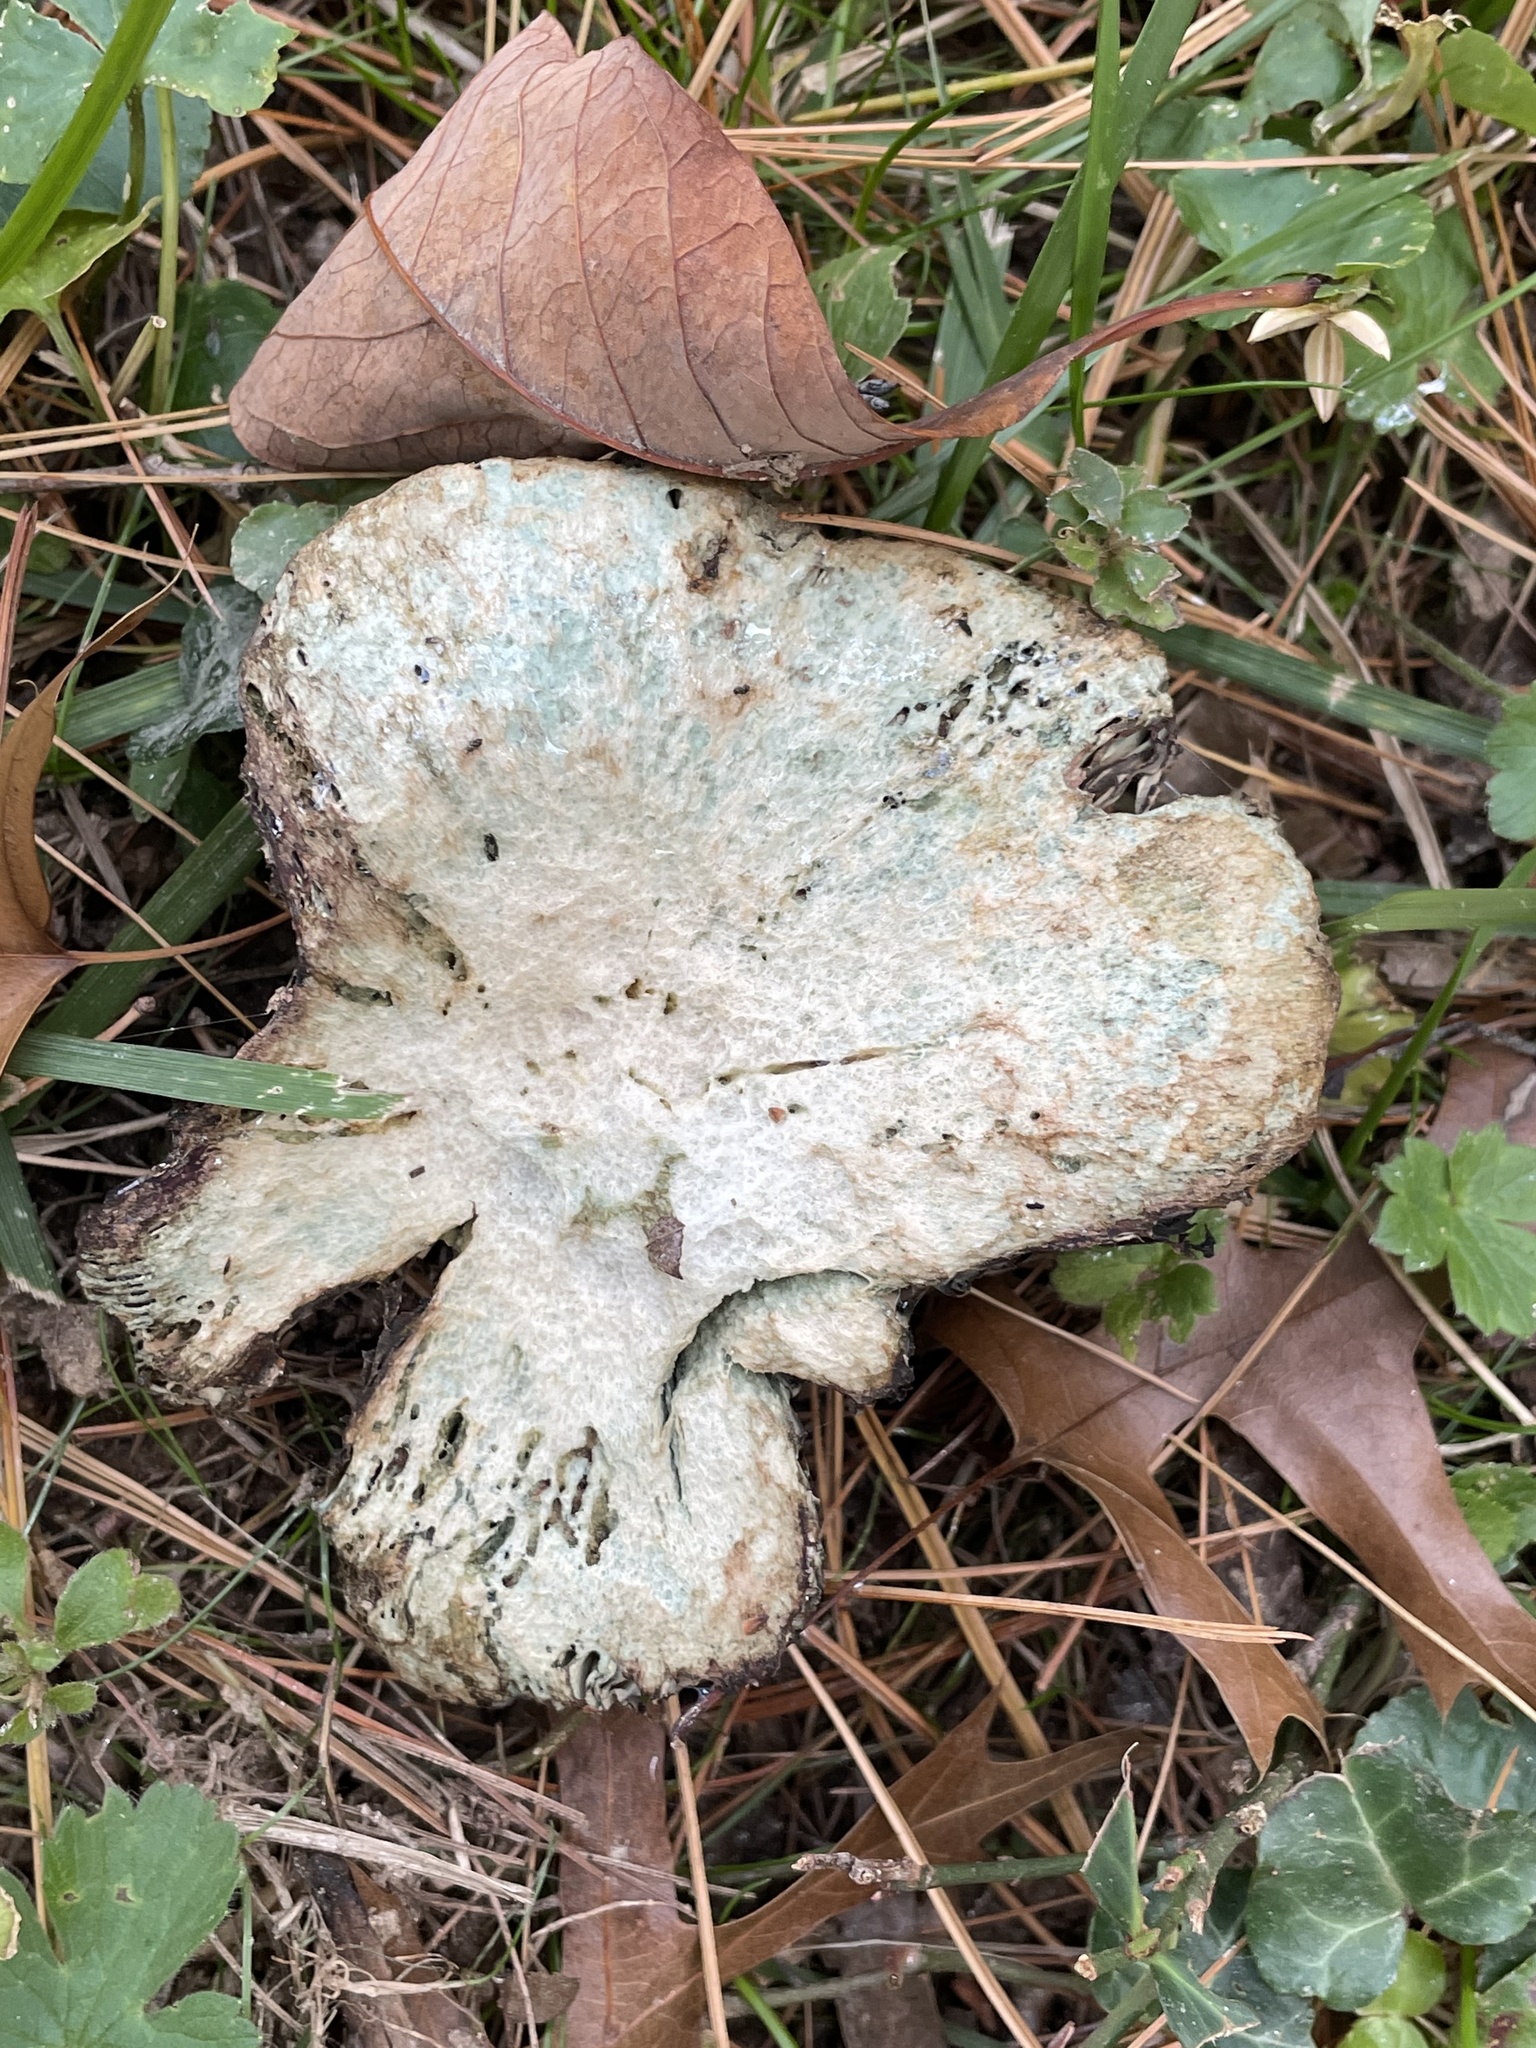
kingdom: Fungi
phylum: Basidiomycota
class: Agaricomycetes
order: Russulales
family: Russulaceae
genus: Lactarius
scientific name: Lactarius chelidonium
